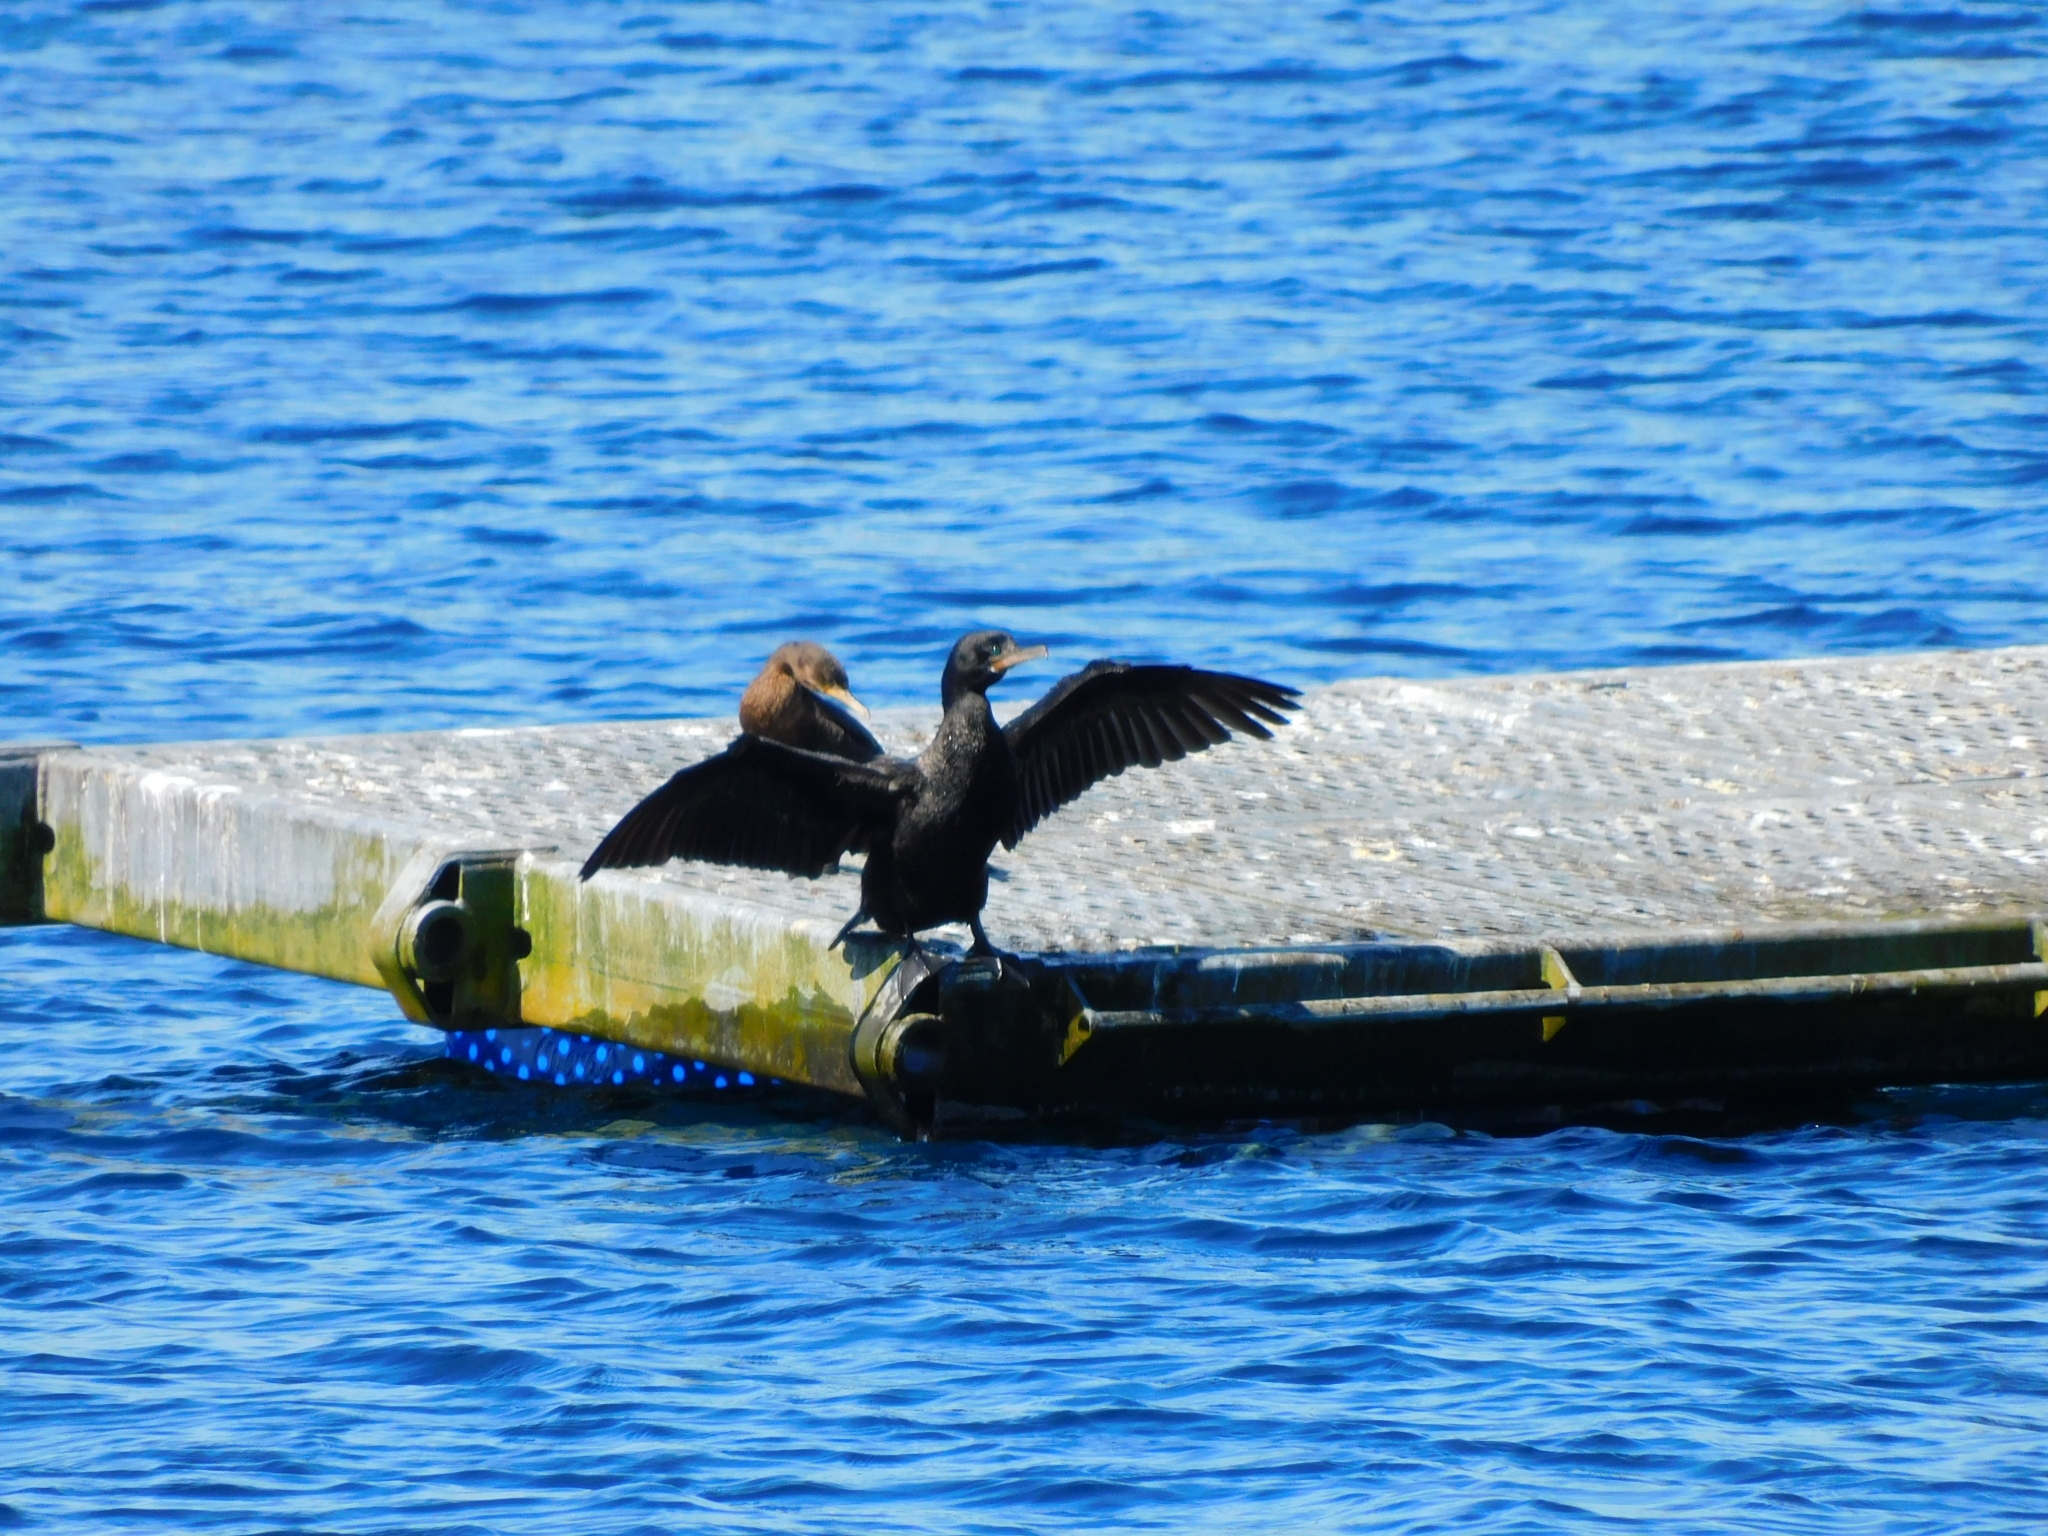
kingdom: Animalia
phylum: Chordata
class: Aves
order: Suliformes
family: Phalacrocoracidae
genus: Phalacrocorax
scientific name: Phalacrocorax brasilianus
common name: Neotropic cormorant
